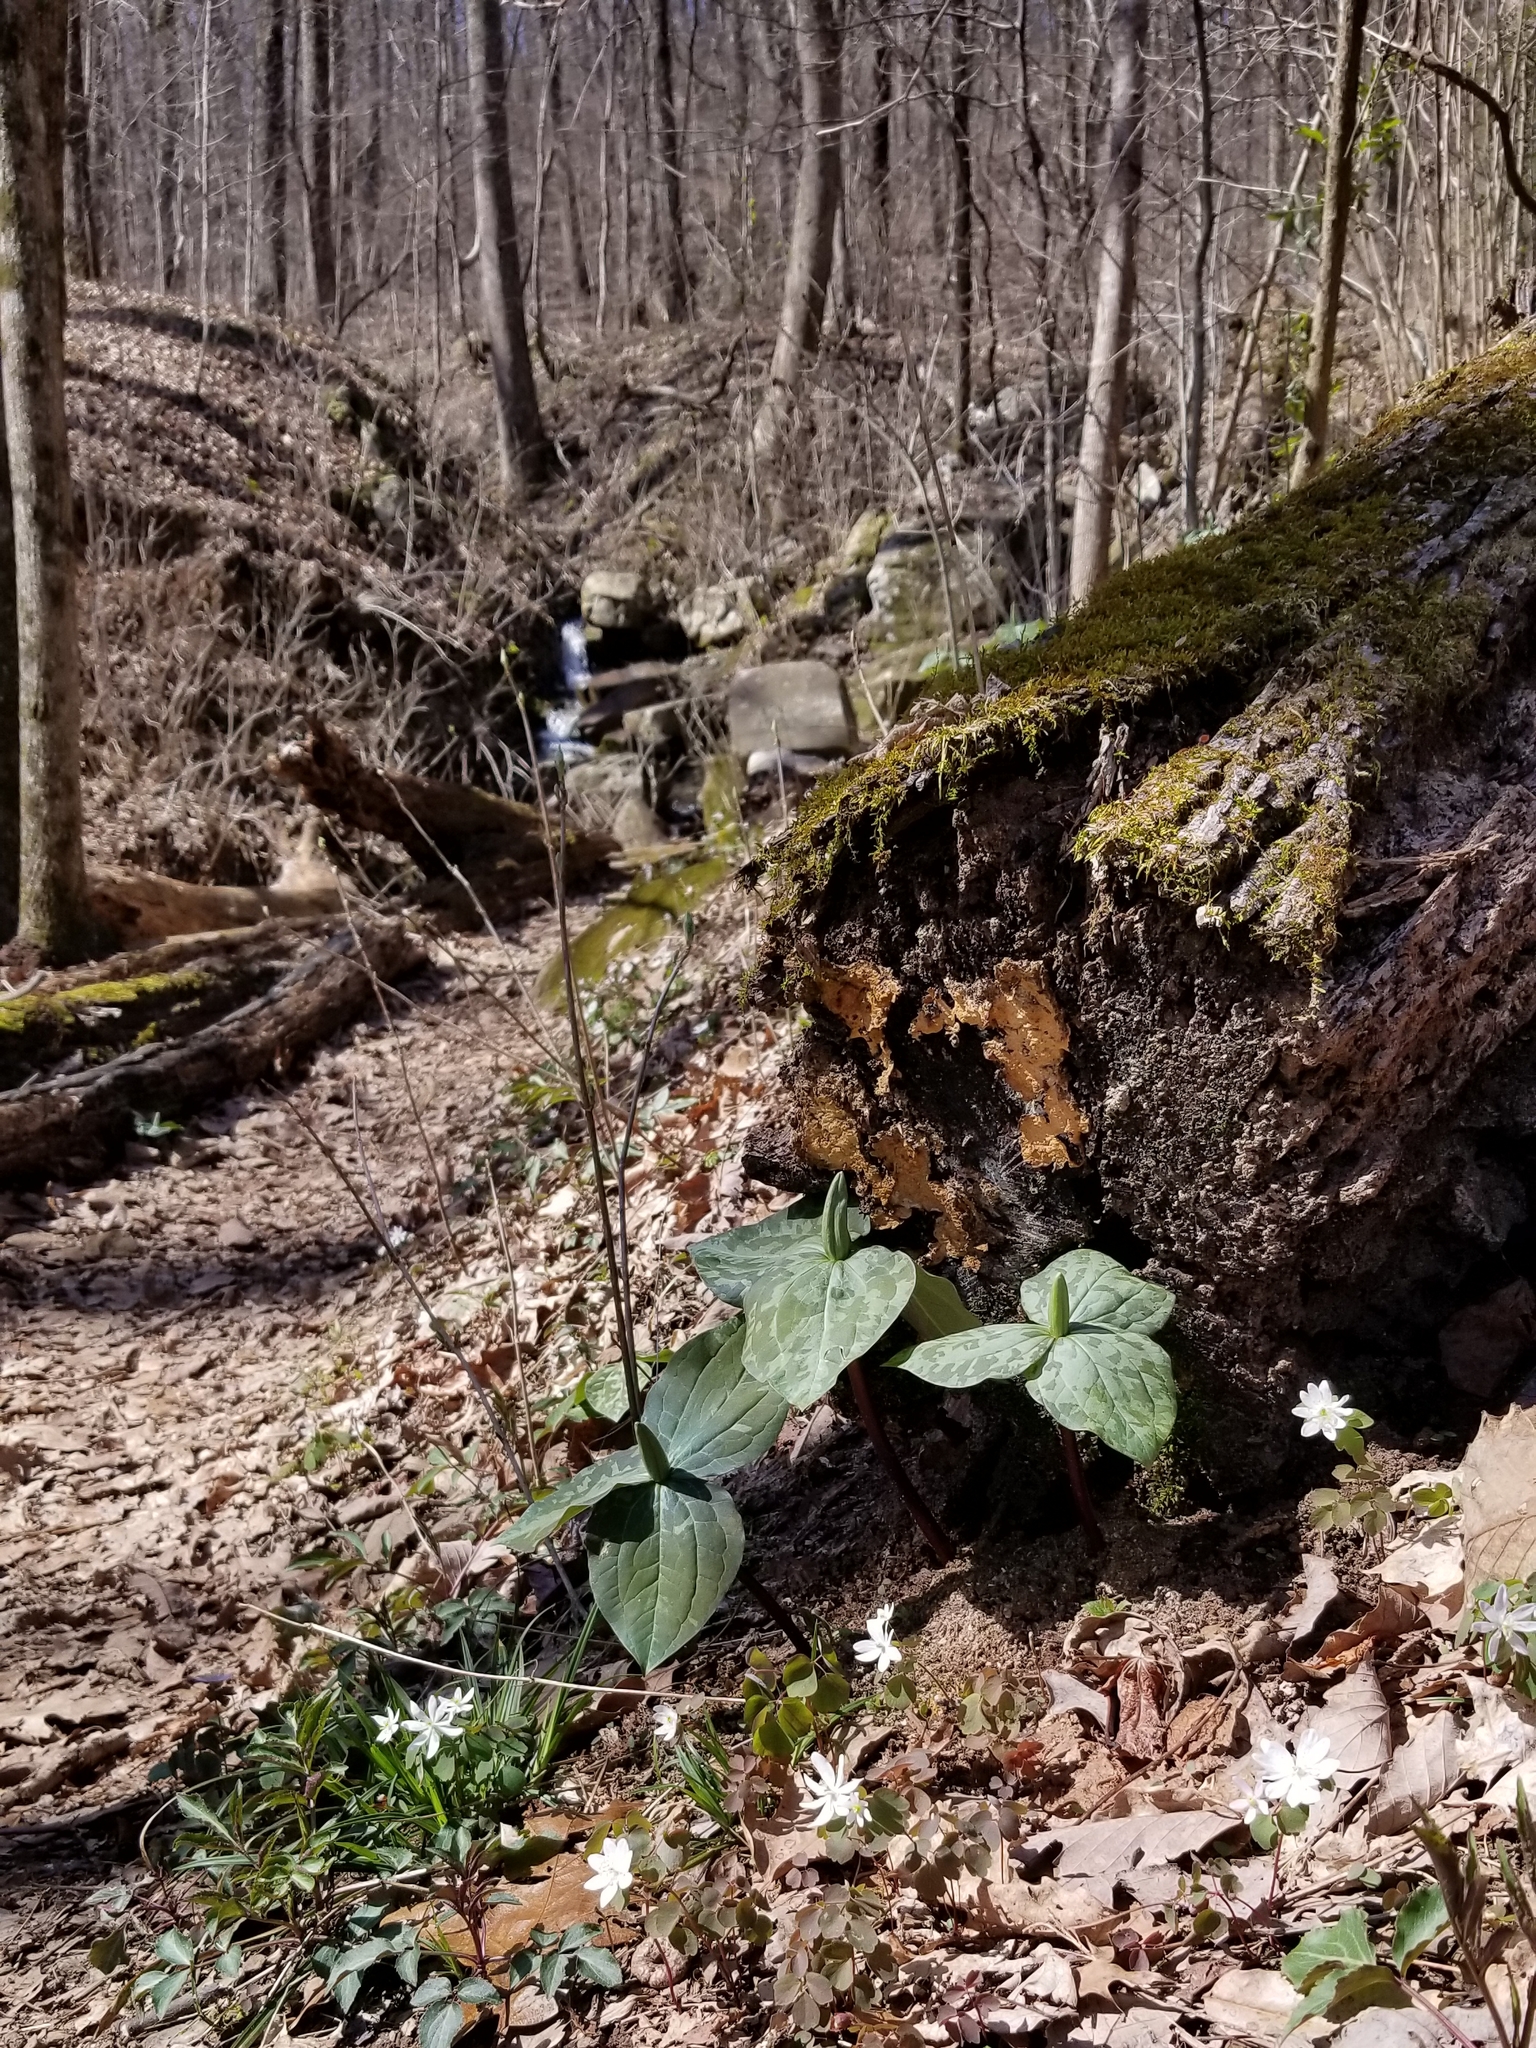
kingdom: Plantae
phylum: Tracheophyta
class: Liliopsida
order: Liliales
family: Melanthiaceae
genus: Trillium
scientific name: Trillium cuneatum
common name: Cuneate trillium
